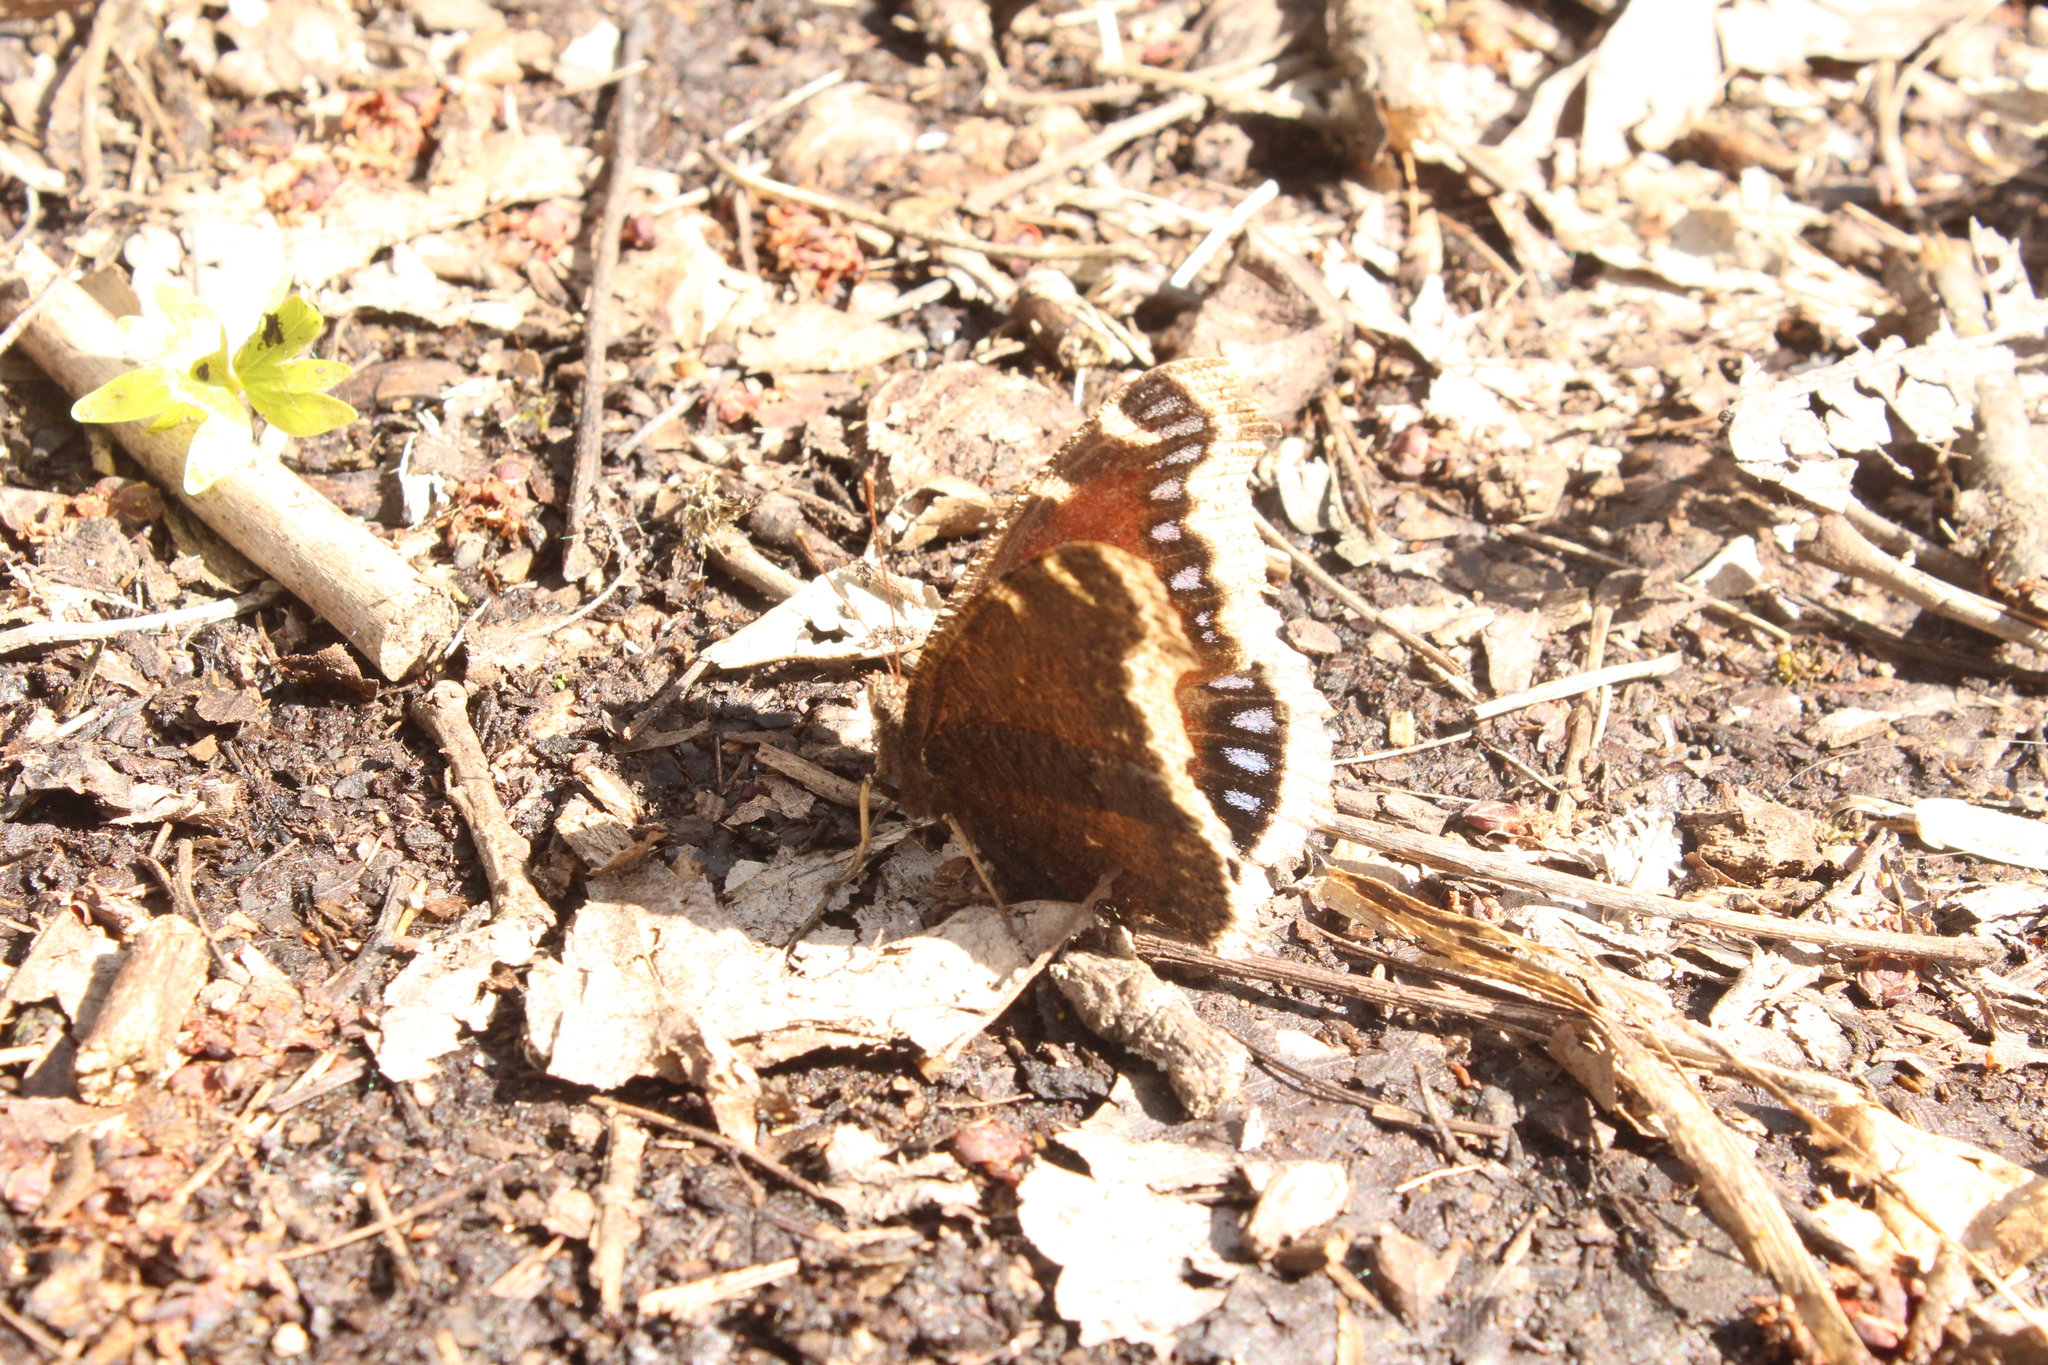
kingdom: Animalia
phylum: Arthropoda
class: Insecta
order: Lepidoptera
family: Nymphalidae
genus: Nymphalis
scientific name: Nymphalis antiopa
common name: Camberwell beauty
